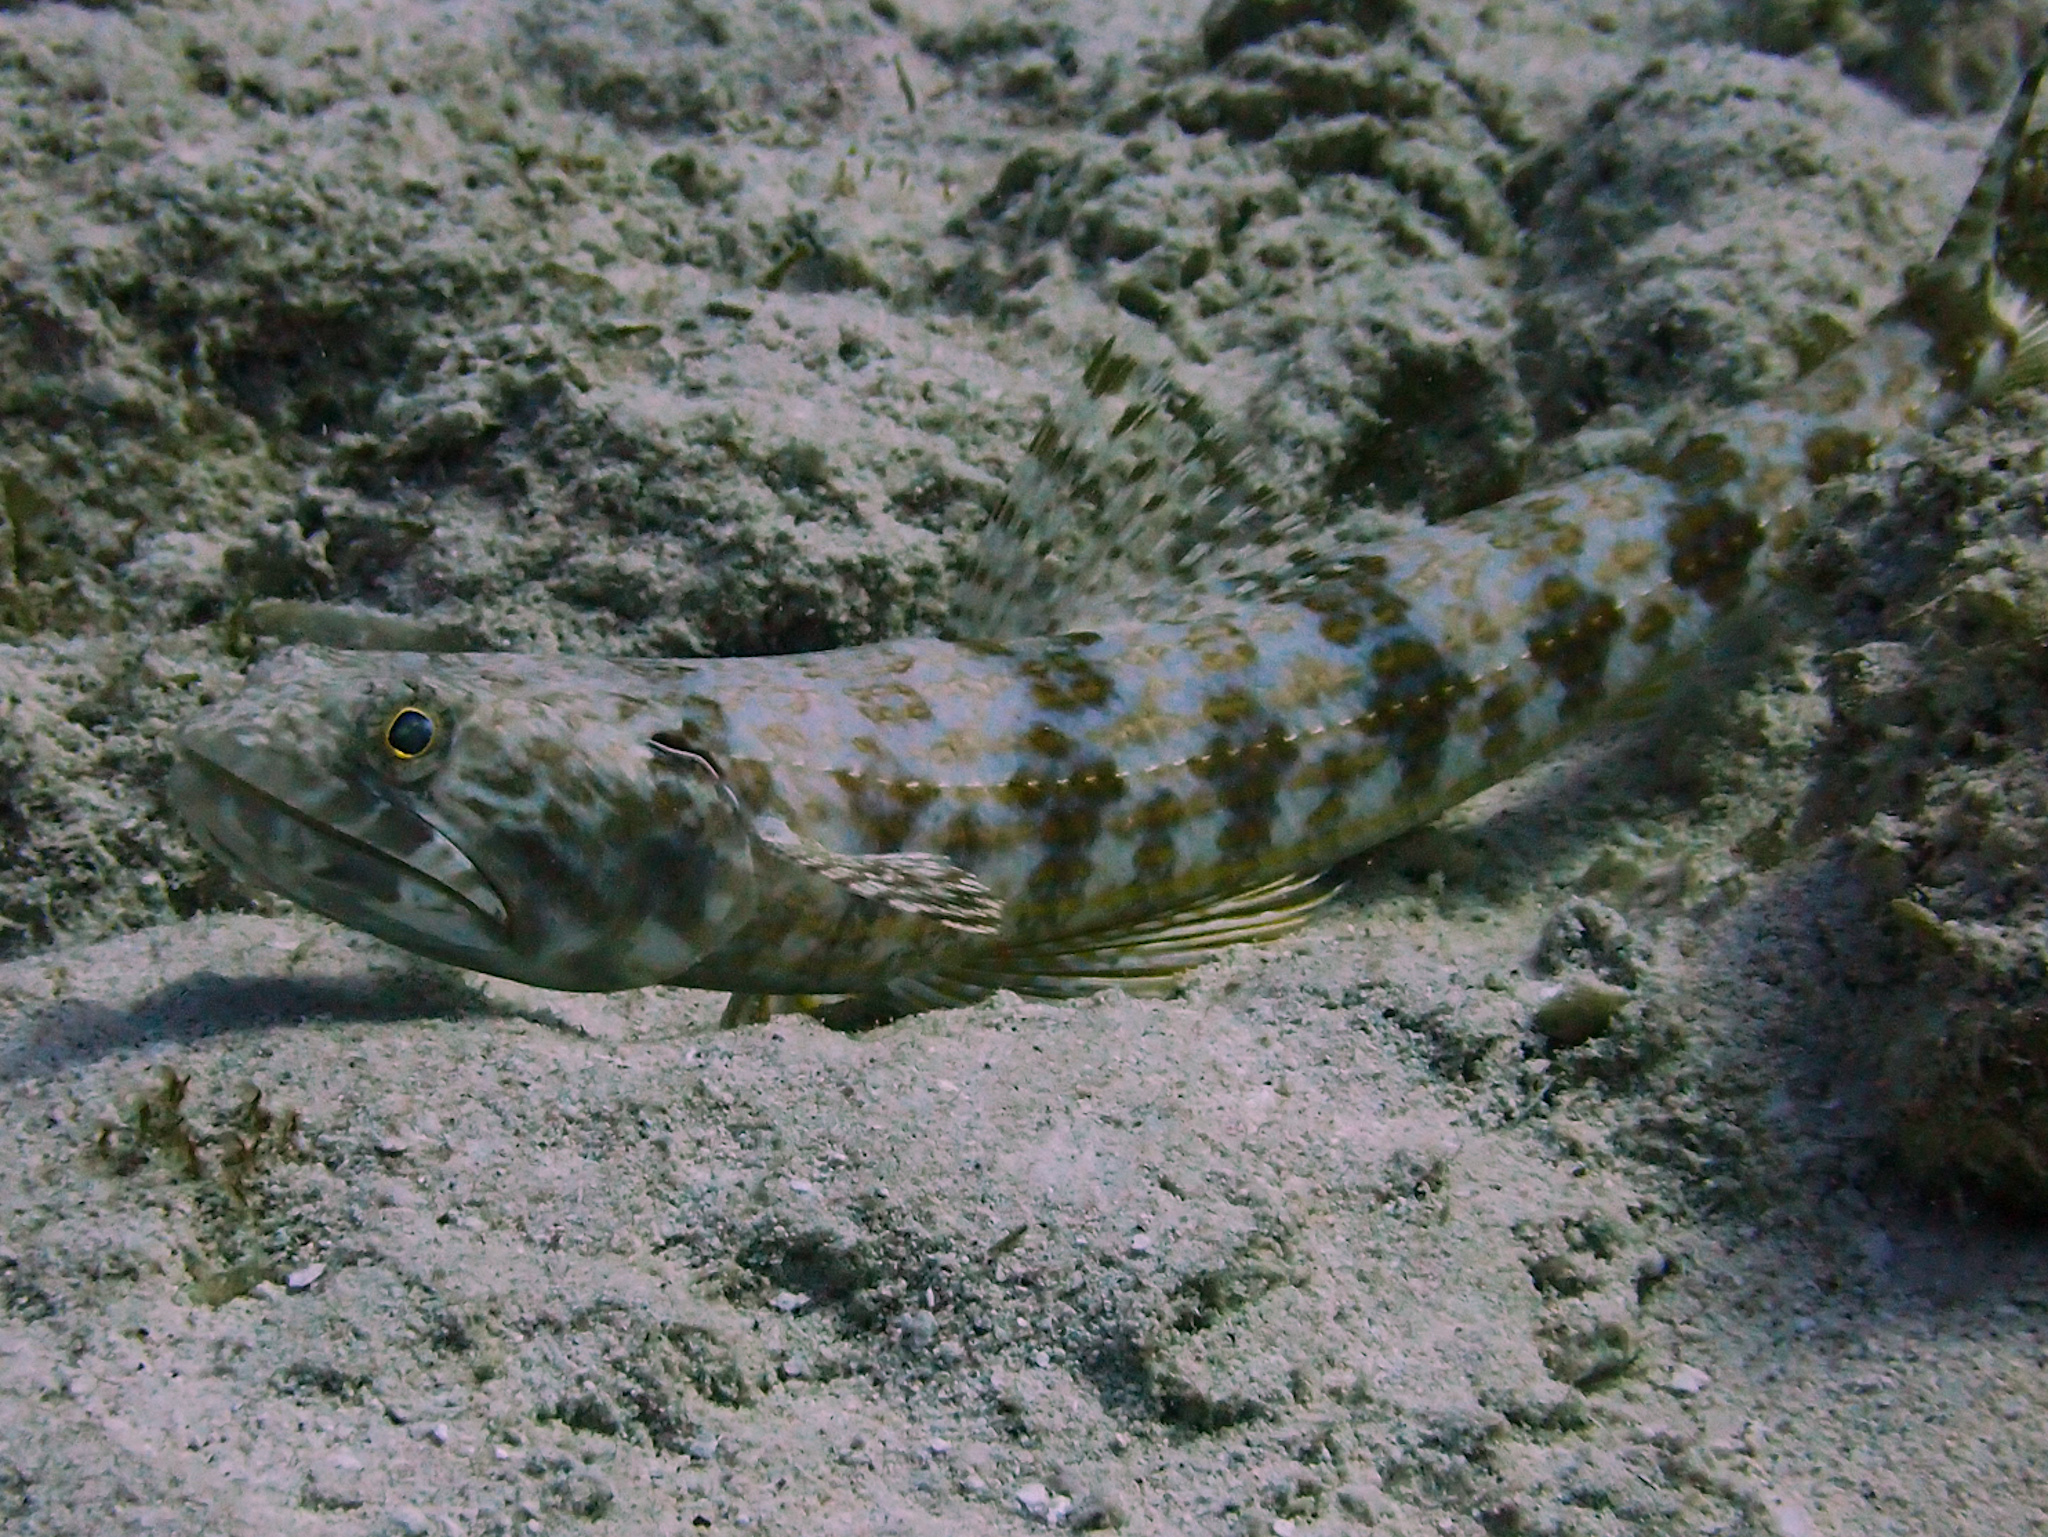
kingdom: Animalia
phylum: Chordata
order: Aulopiformes
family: Synodontidae
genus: Synodus
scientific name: Synodus intermedius
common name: Sand diver
